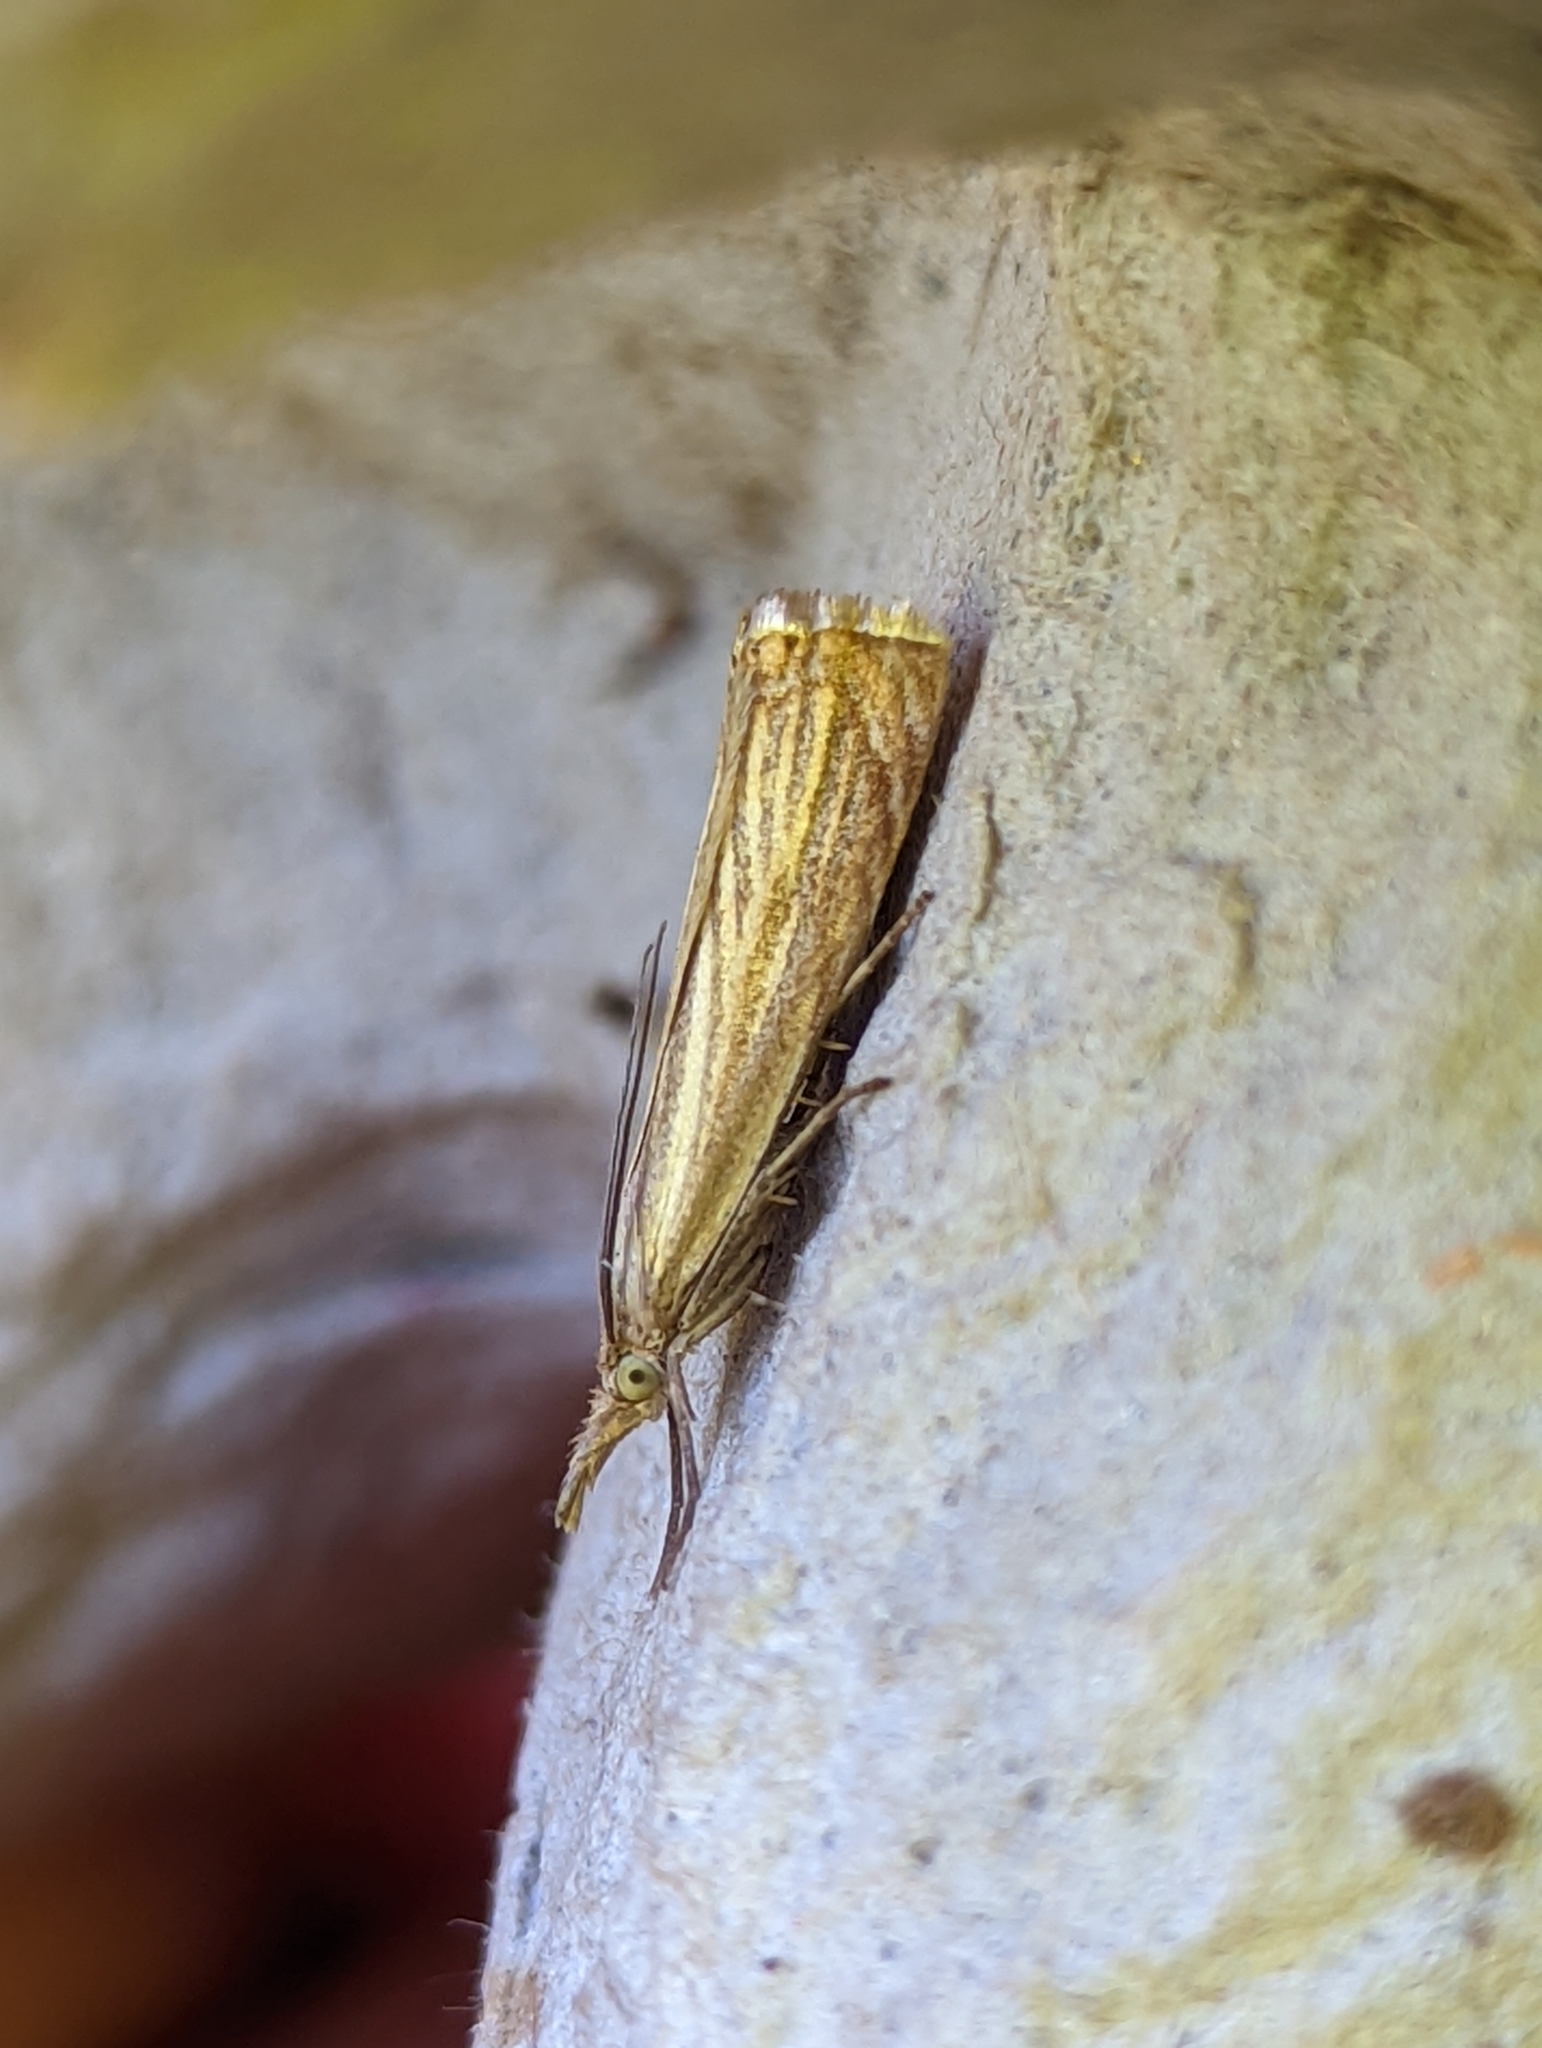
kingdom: Animalia
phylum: Arthropoda
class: Insecta
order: Lepidoptera
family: Crambidae
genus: Chrysoteuchia
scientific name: Chrysoteuchia culmella
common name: Garden grass-veneer
